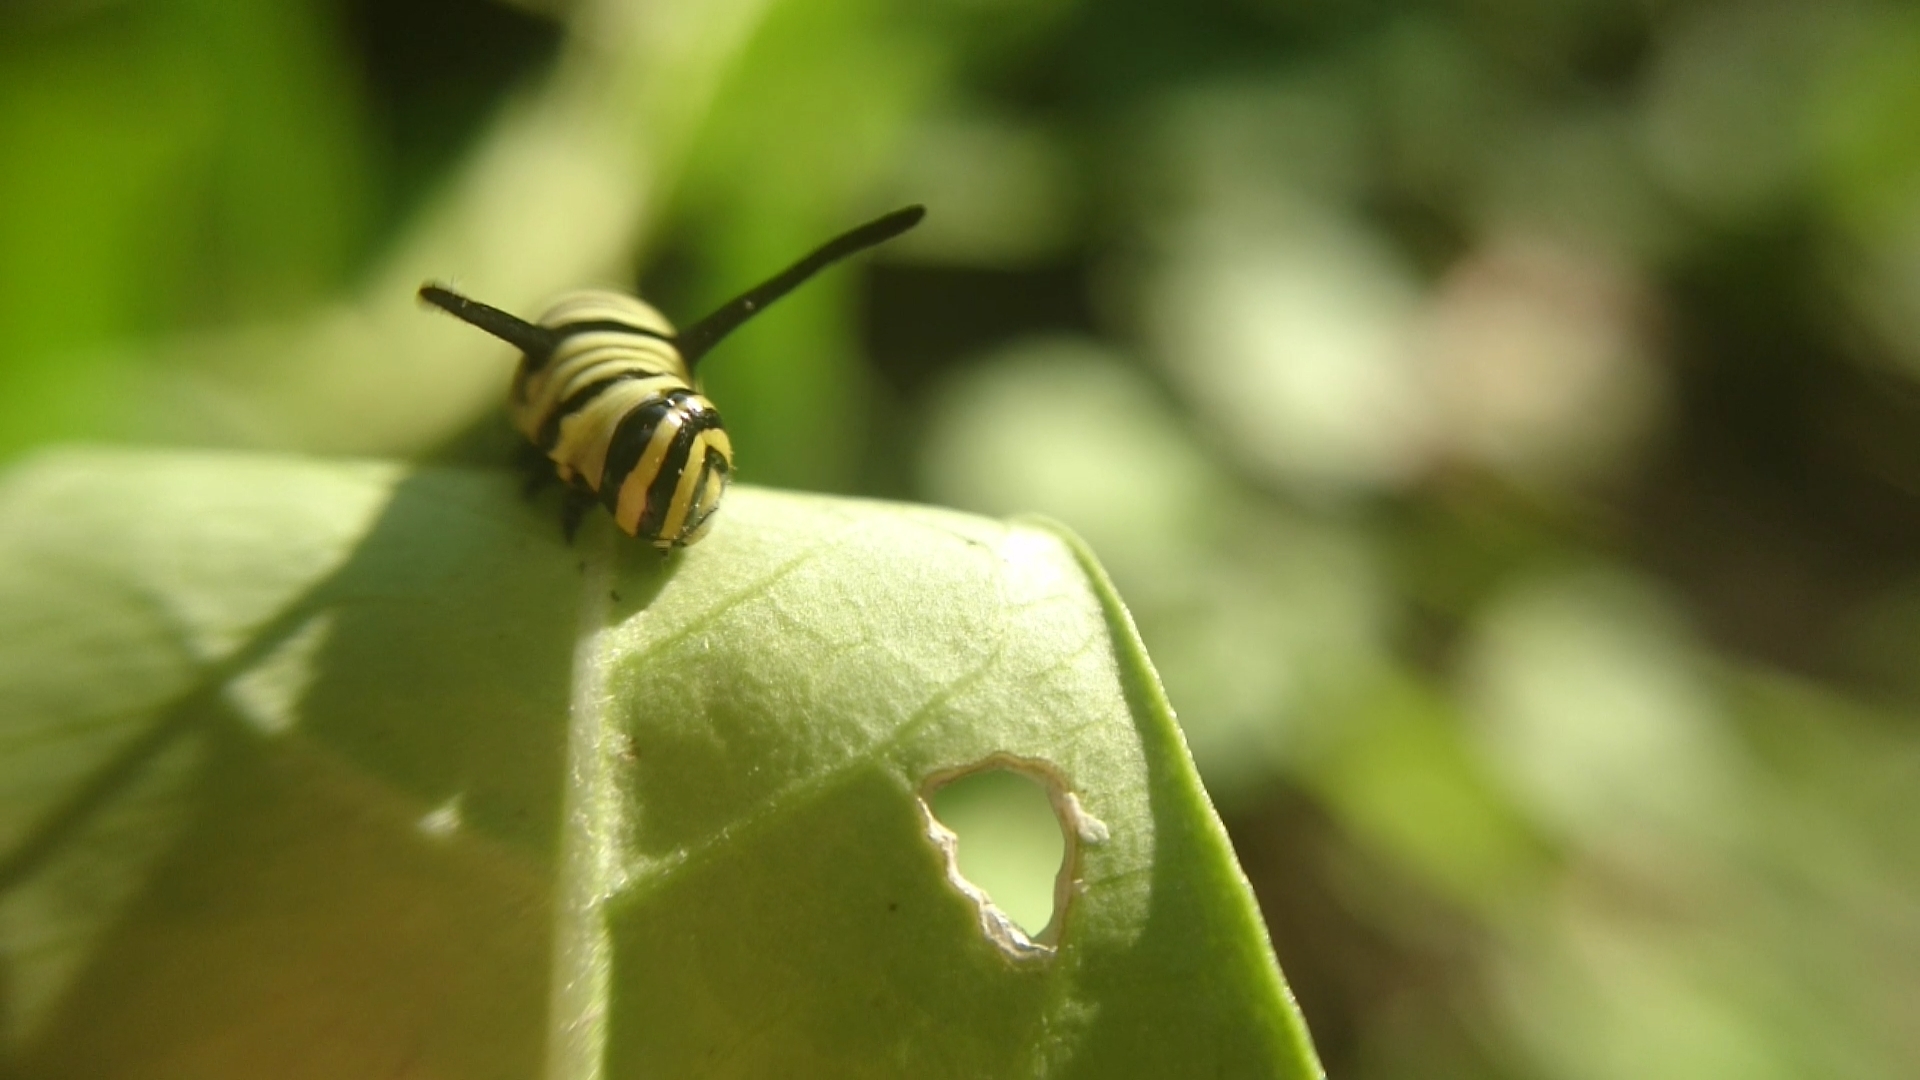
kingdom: Animalia
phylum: Arthropoda
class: Insecta
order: Lepidoptera
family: Nymphalidae
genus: Danaus
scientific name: Danaus erippus
